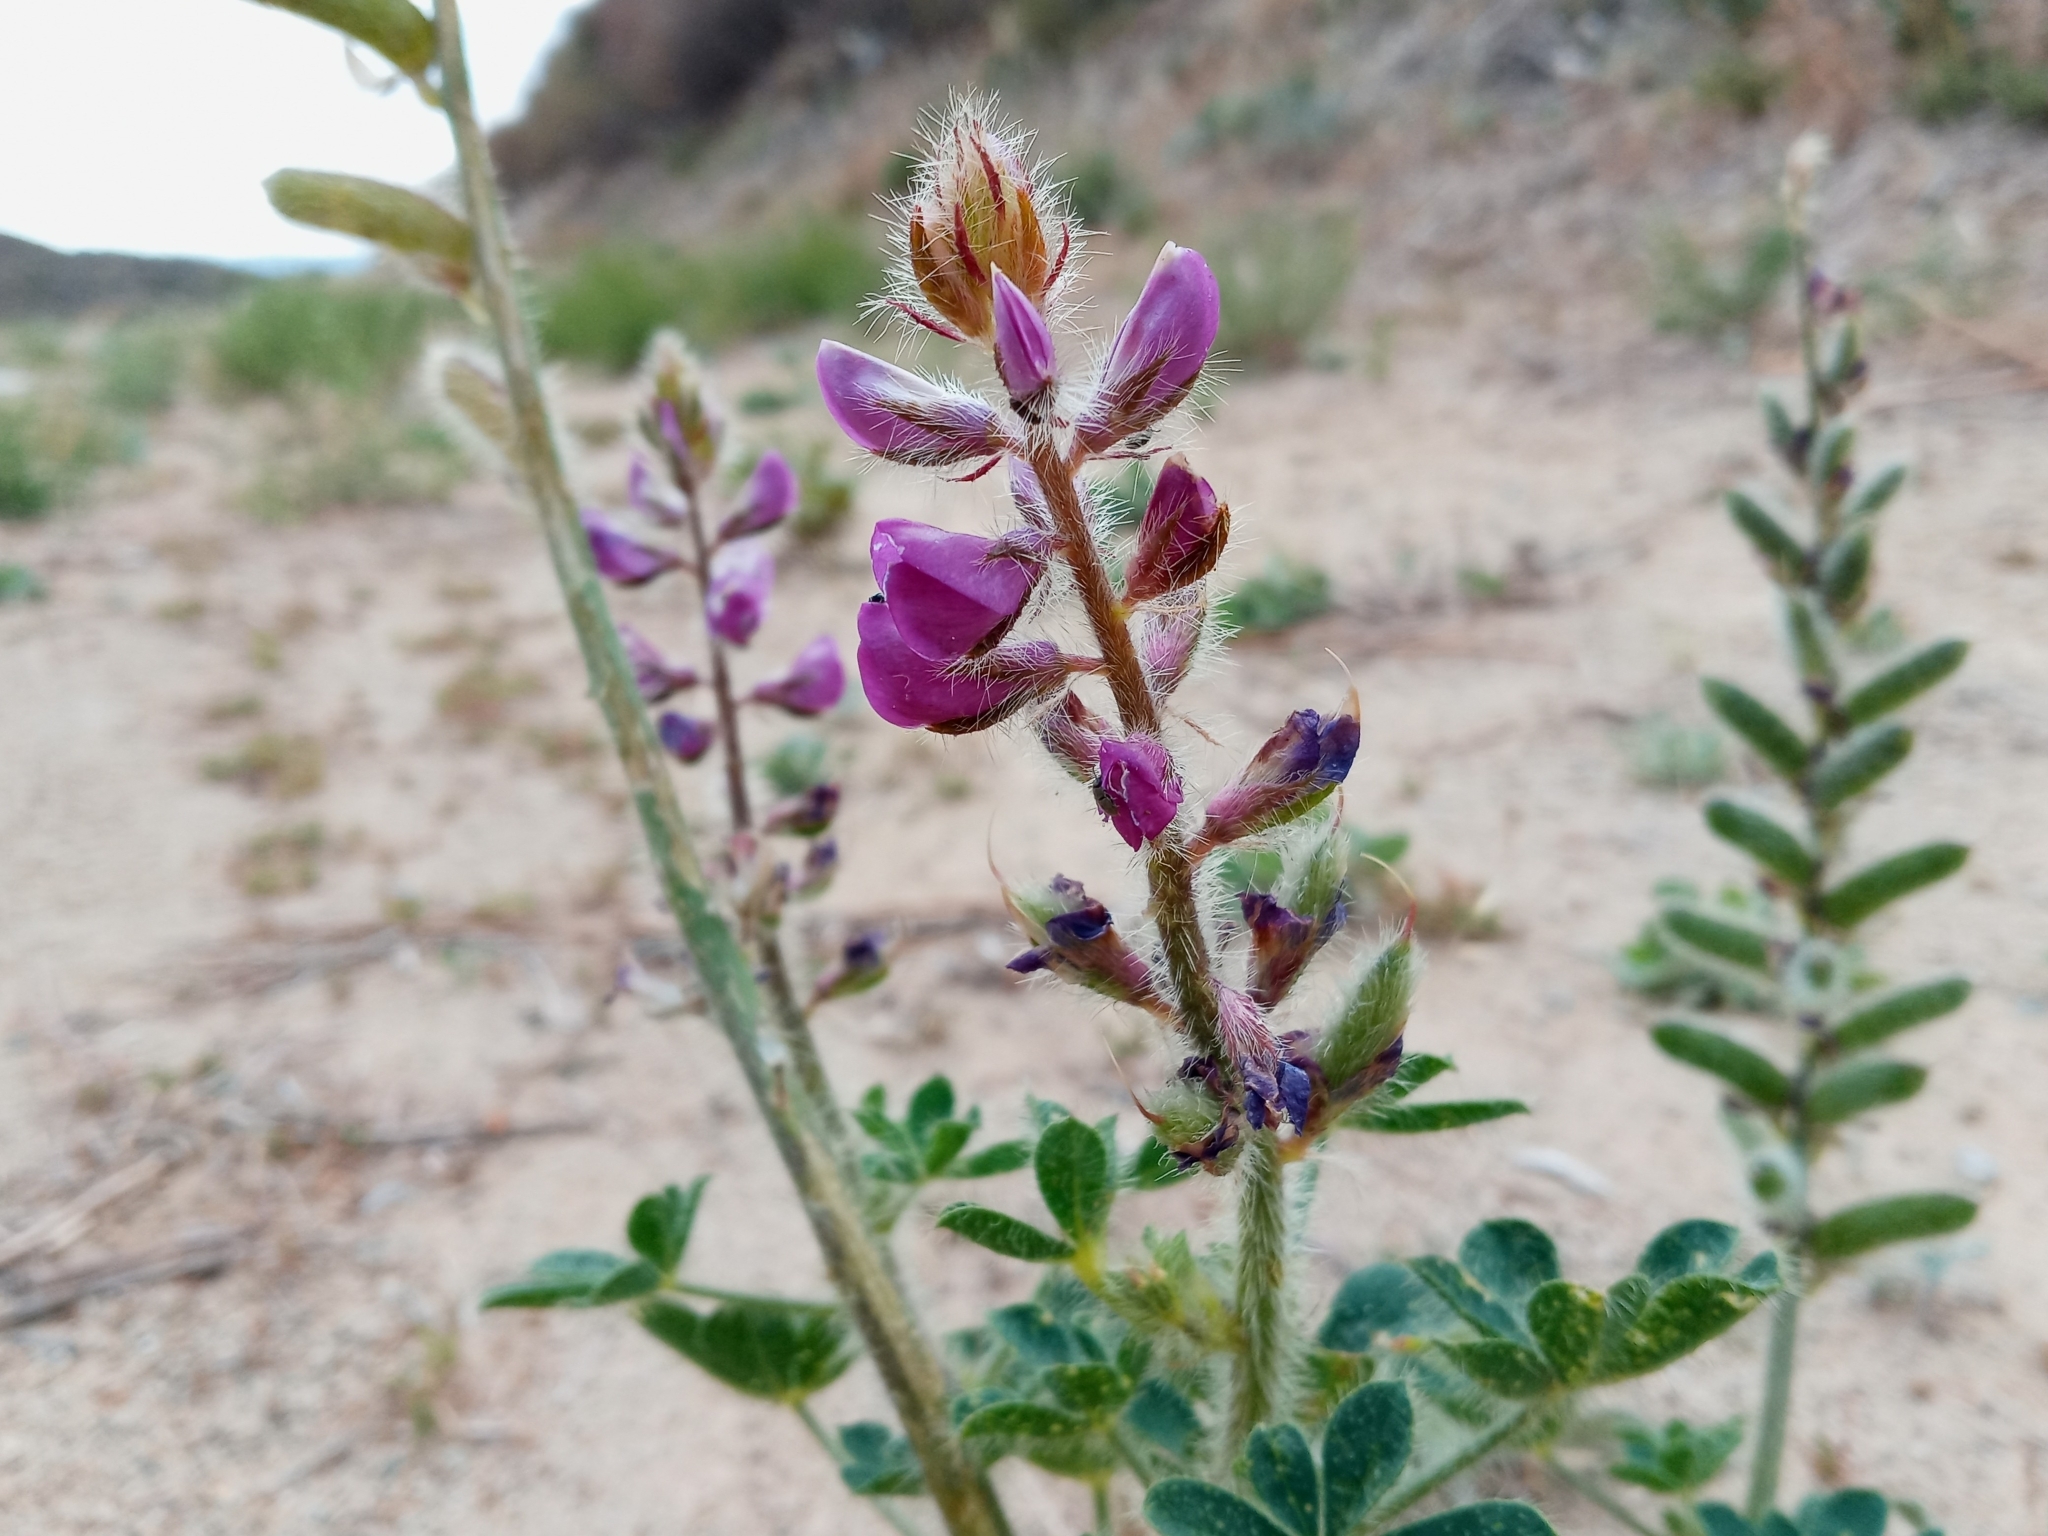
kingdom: Plantae
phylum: Tracheophyta
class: Magnoliopsida
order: Fabales
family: Fabaceae
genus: Lupinus
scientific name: Lupinus hirsutissimus
